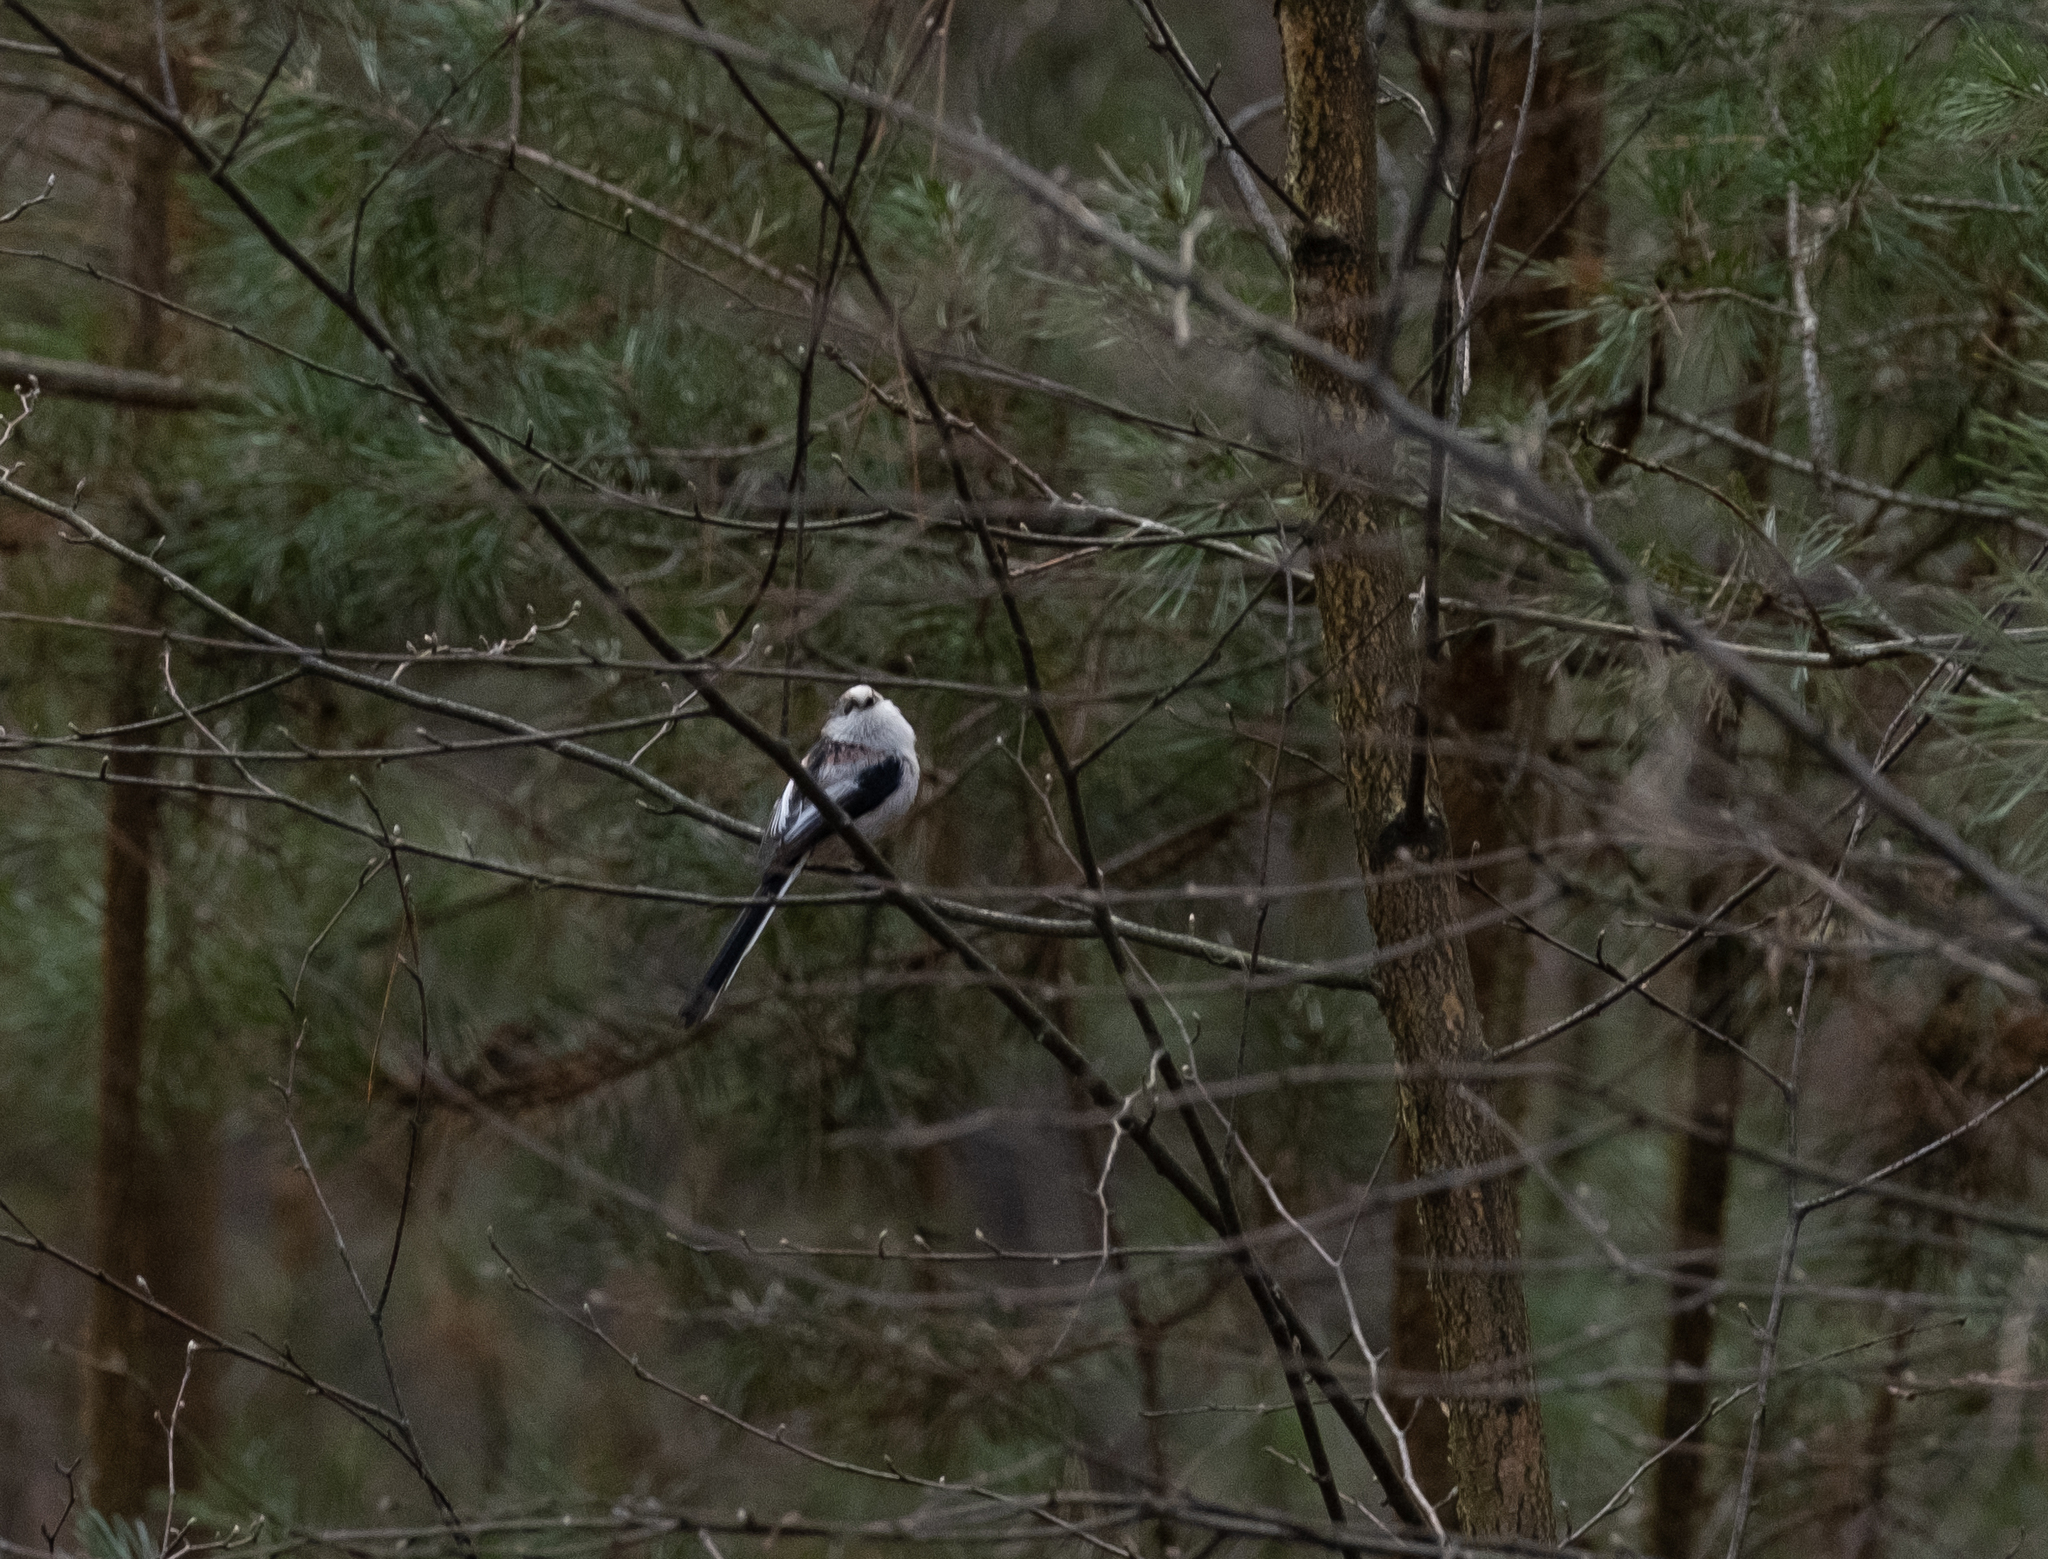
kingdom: Animalia
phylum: Chordata
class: Aves
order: Passeriformes
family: Aegithalidae
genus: Aegithalos
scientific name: Aegithalos caudatus
